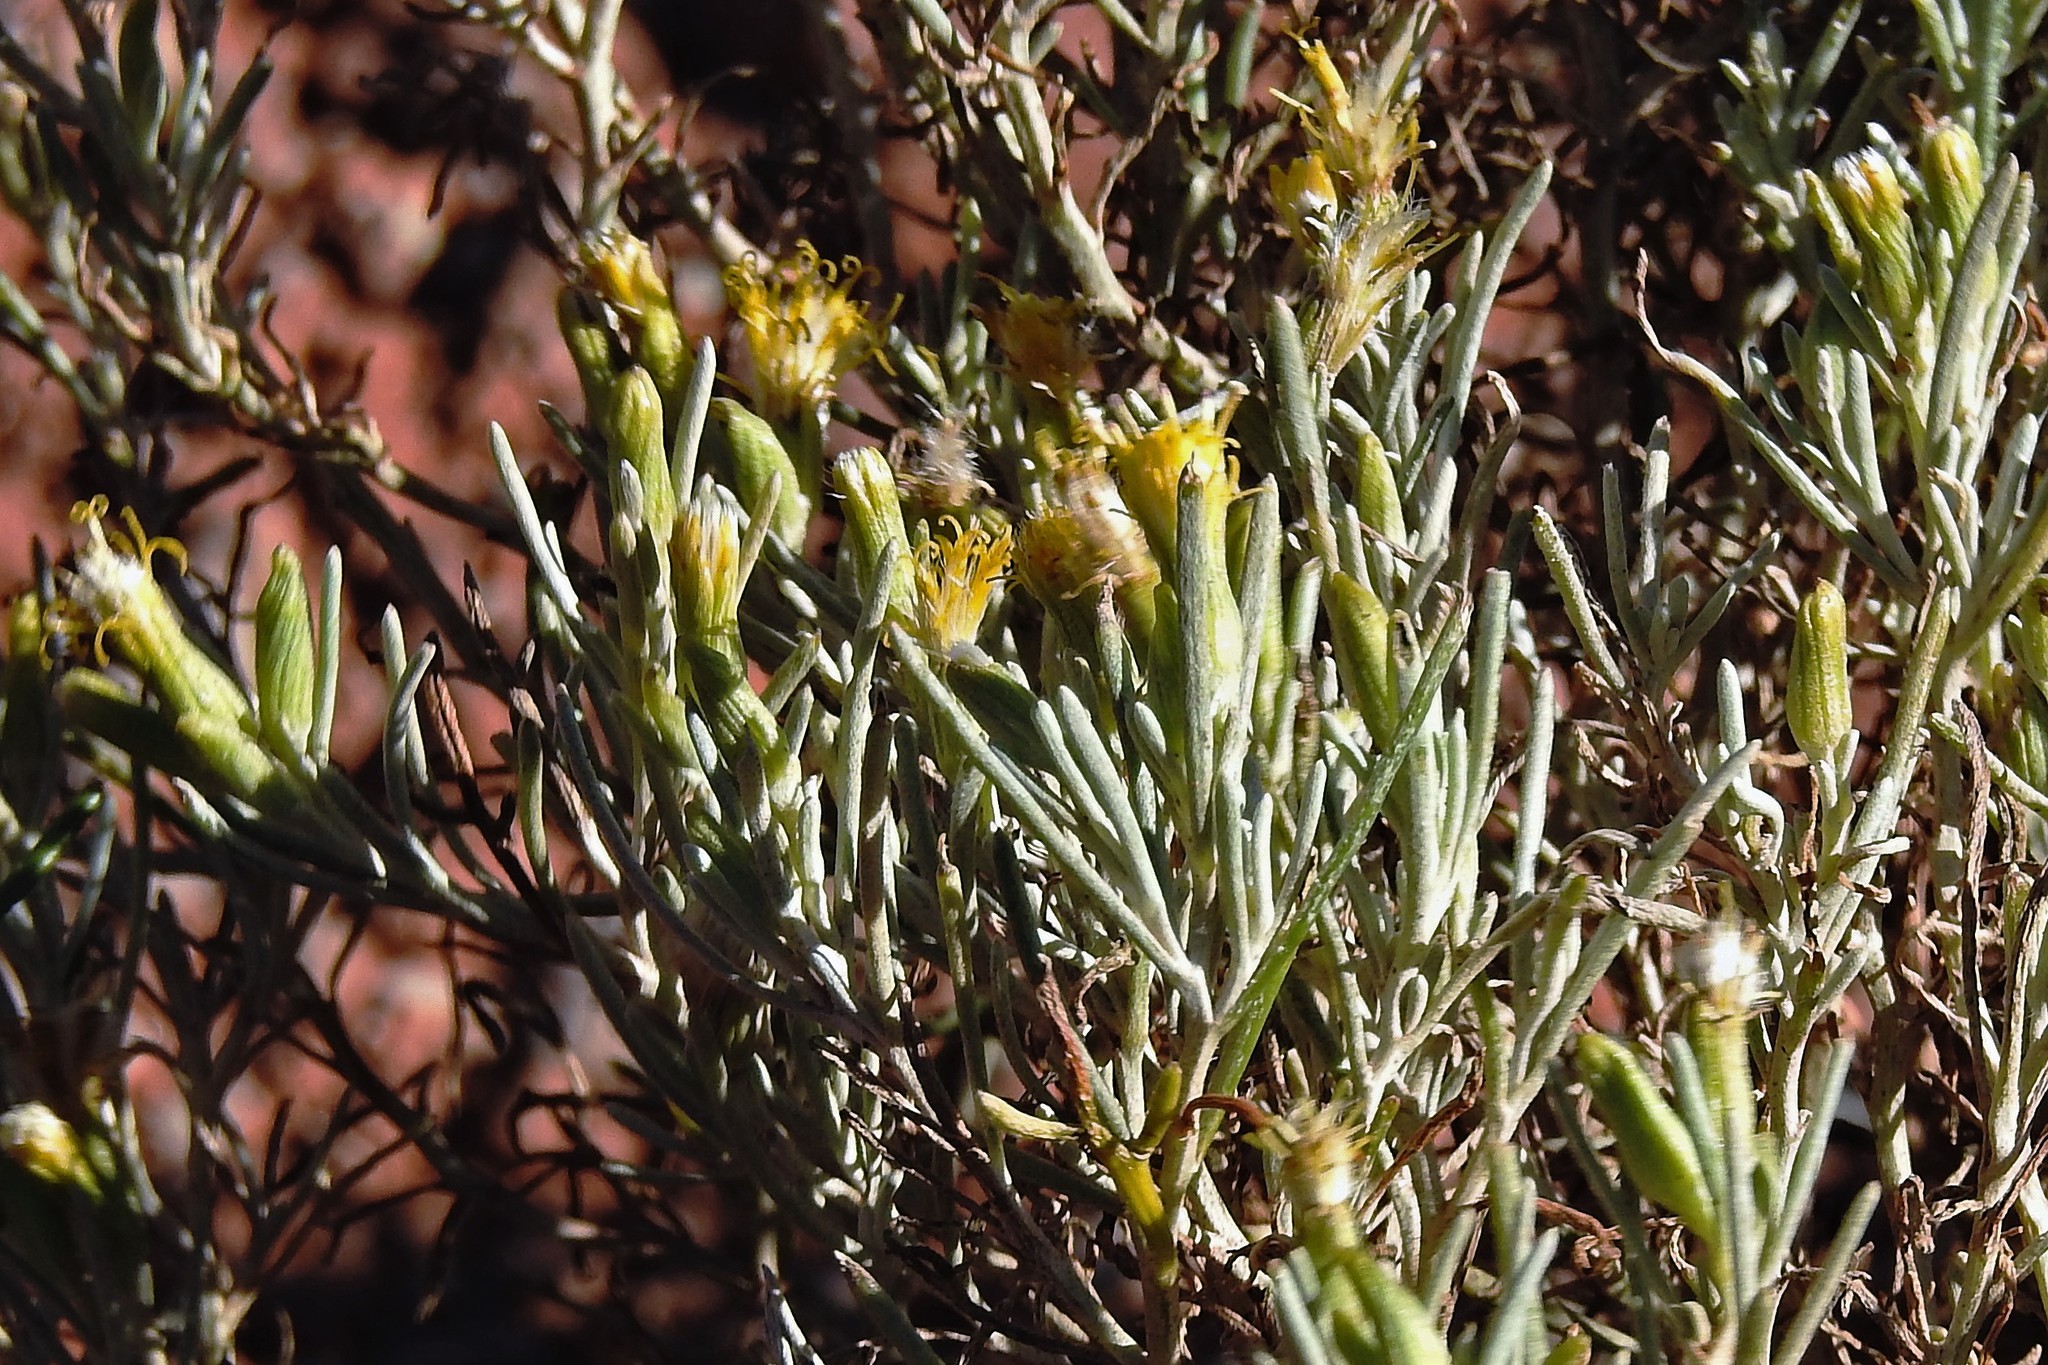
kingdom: Plantae
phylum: Tracheophyta
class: Magnoliopsida
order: Asterales
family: Asteraceae
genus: Senecio
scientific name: Senecio hualtaranensis
